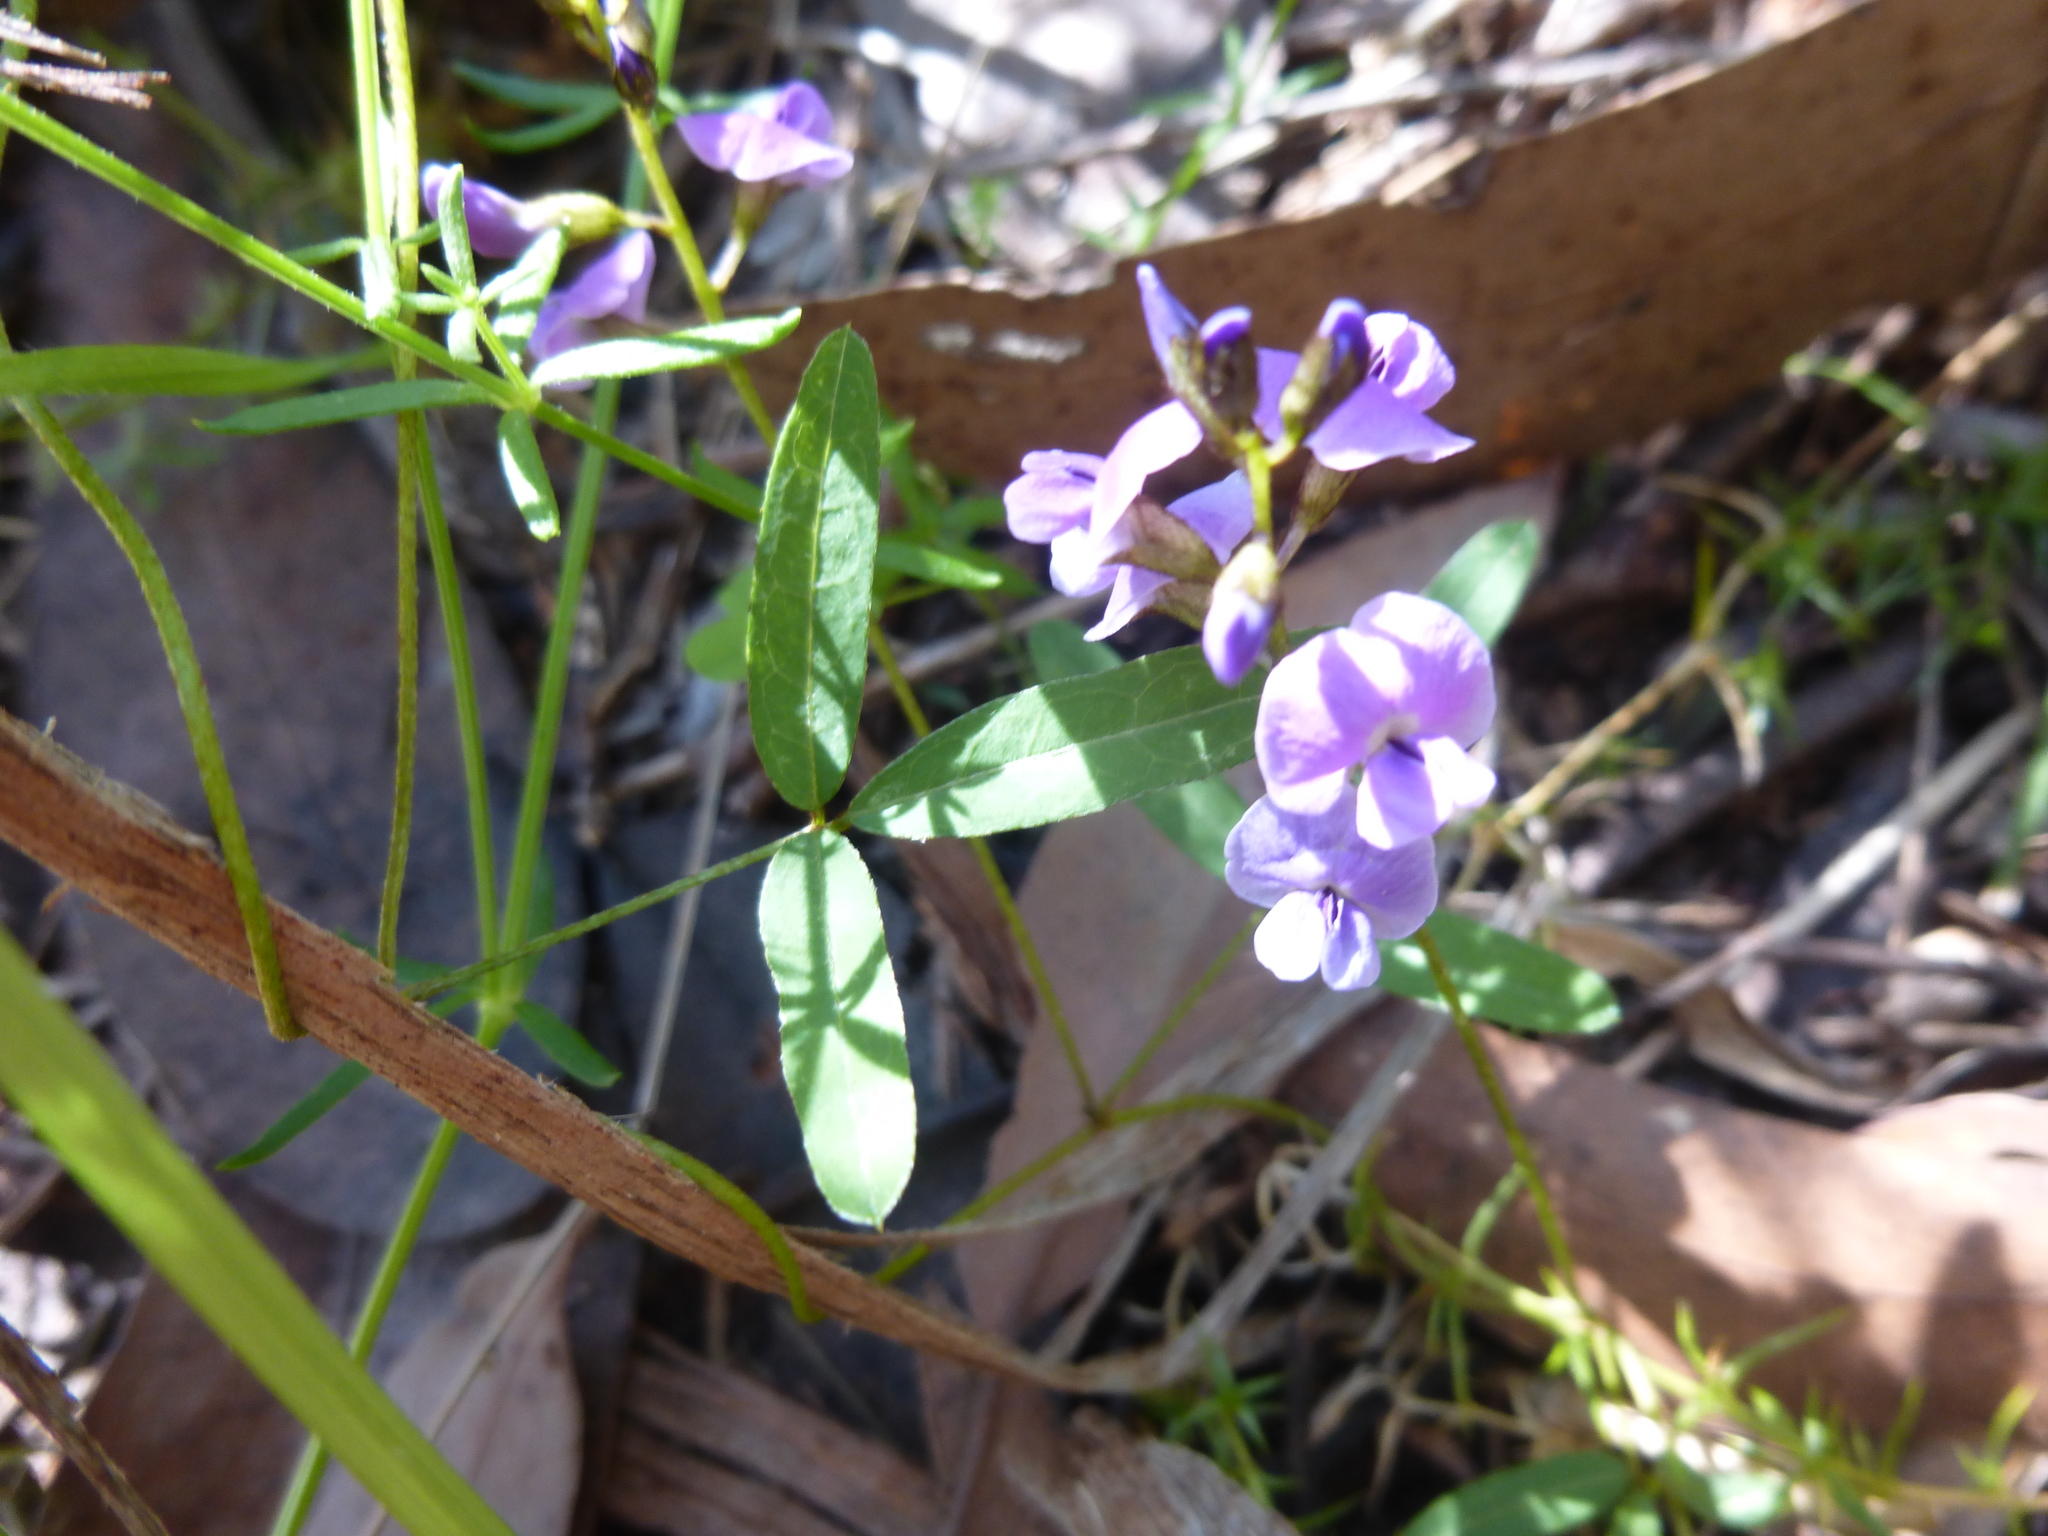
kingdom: Plantae
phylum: Tracheophyta
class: Magnoliopsida
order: Fabales
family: Fabaceae
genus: Glycine
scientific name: Glycine clandestina
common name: Twining glycine
